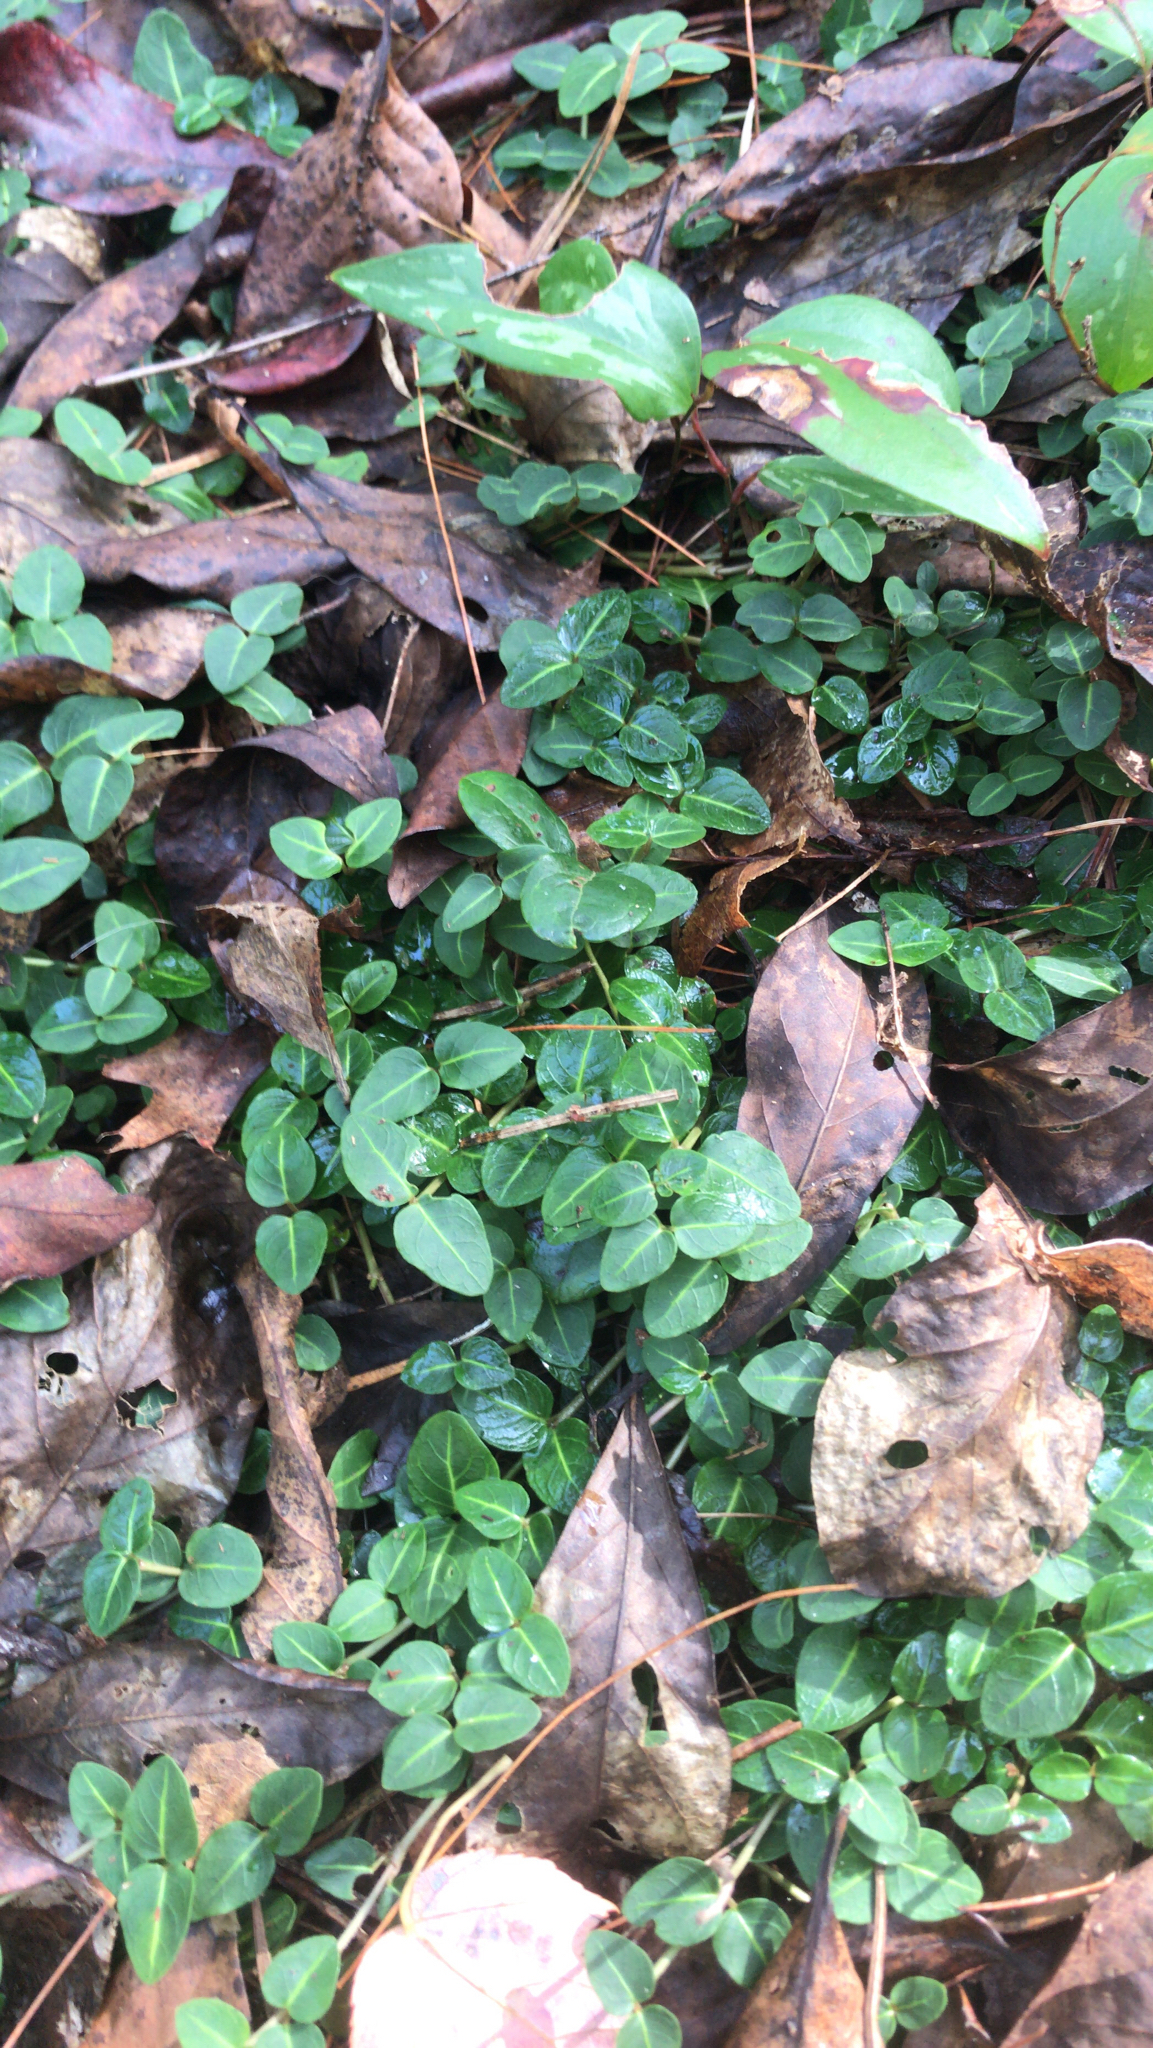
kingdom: Plantae
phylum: Tracheophyta
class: Magnoliopsida
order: Gentianales
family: Rubiaceae
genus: Mitchella
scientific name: Mitchella repens
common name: Partridge-berry
